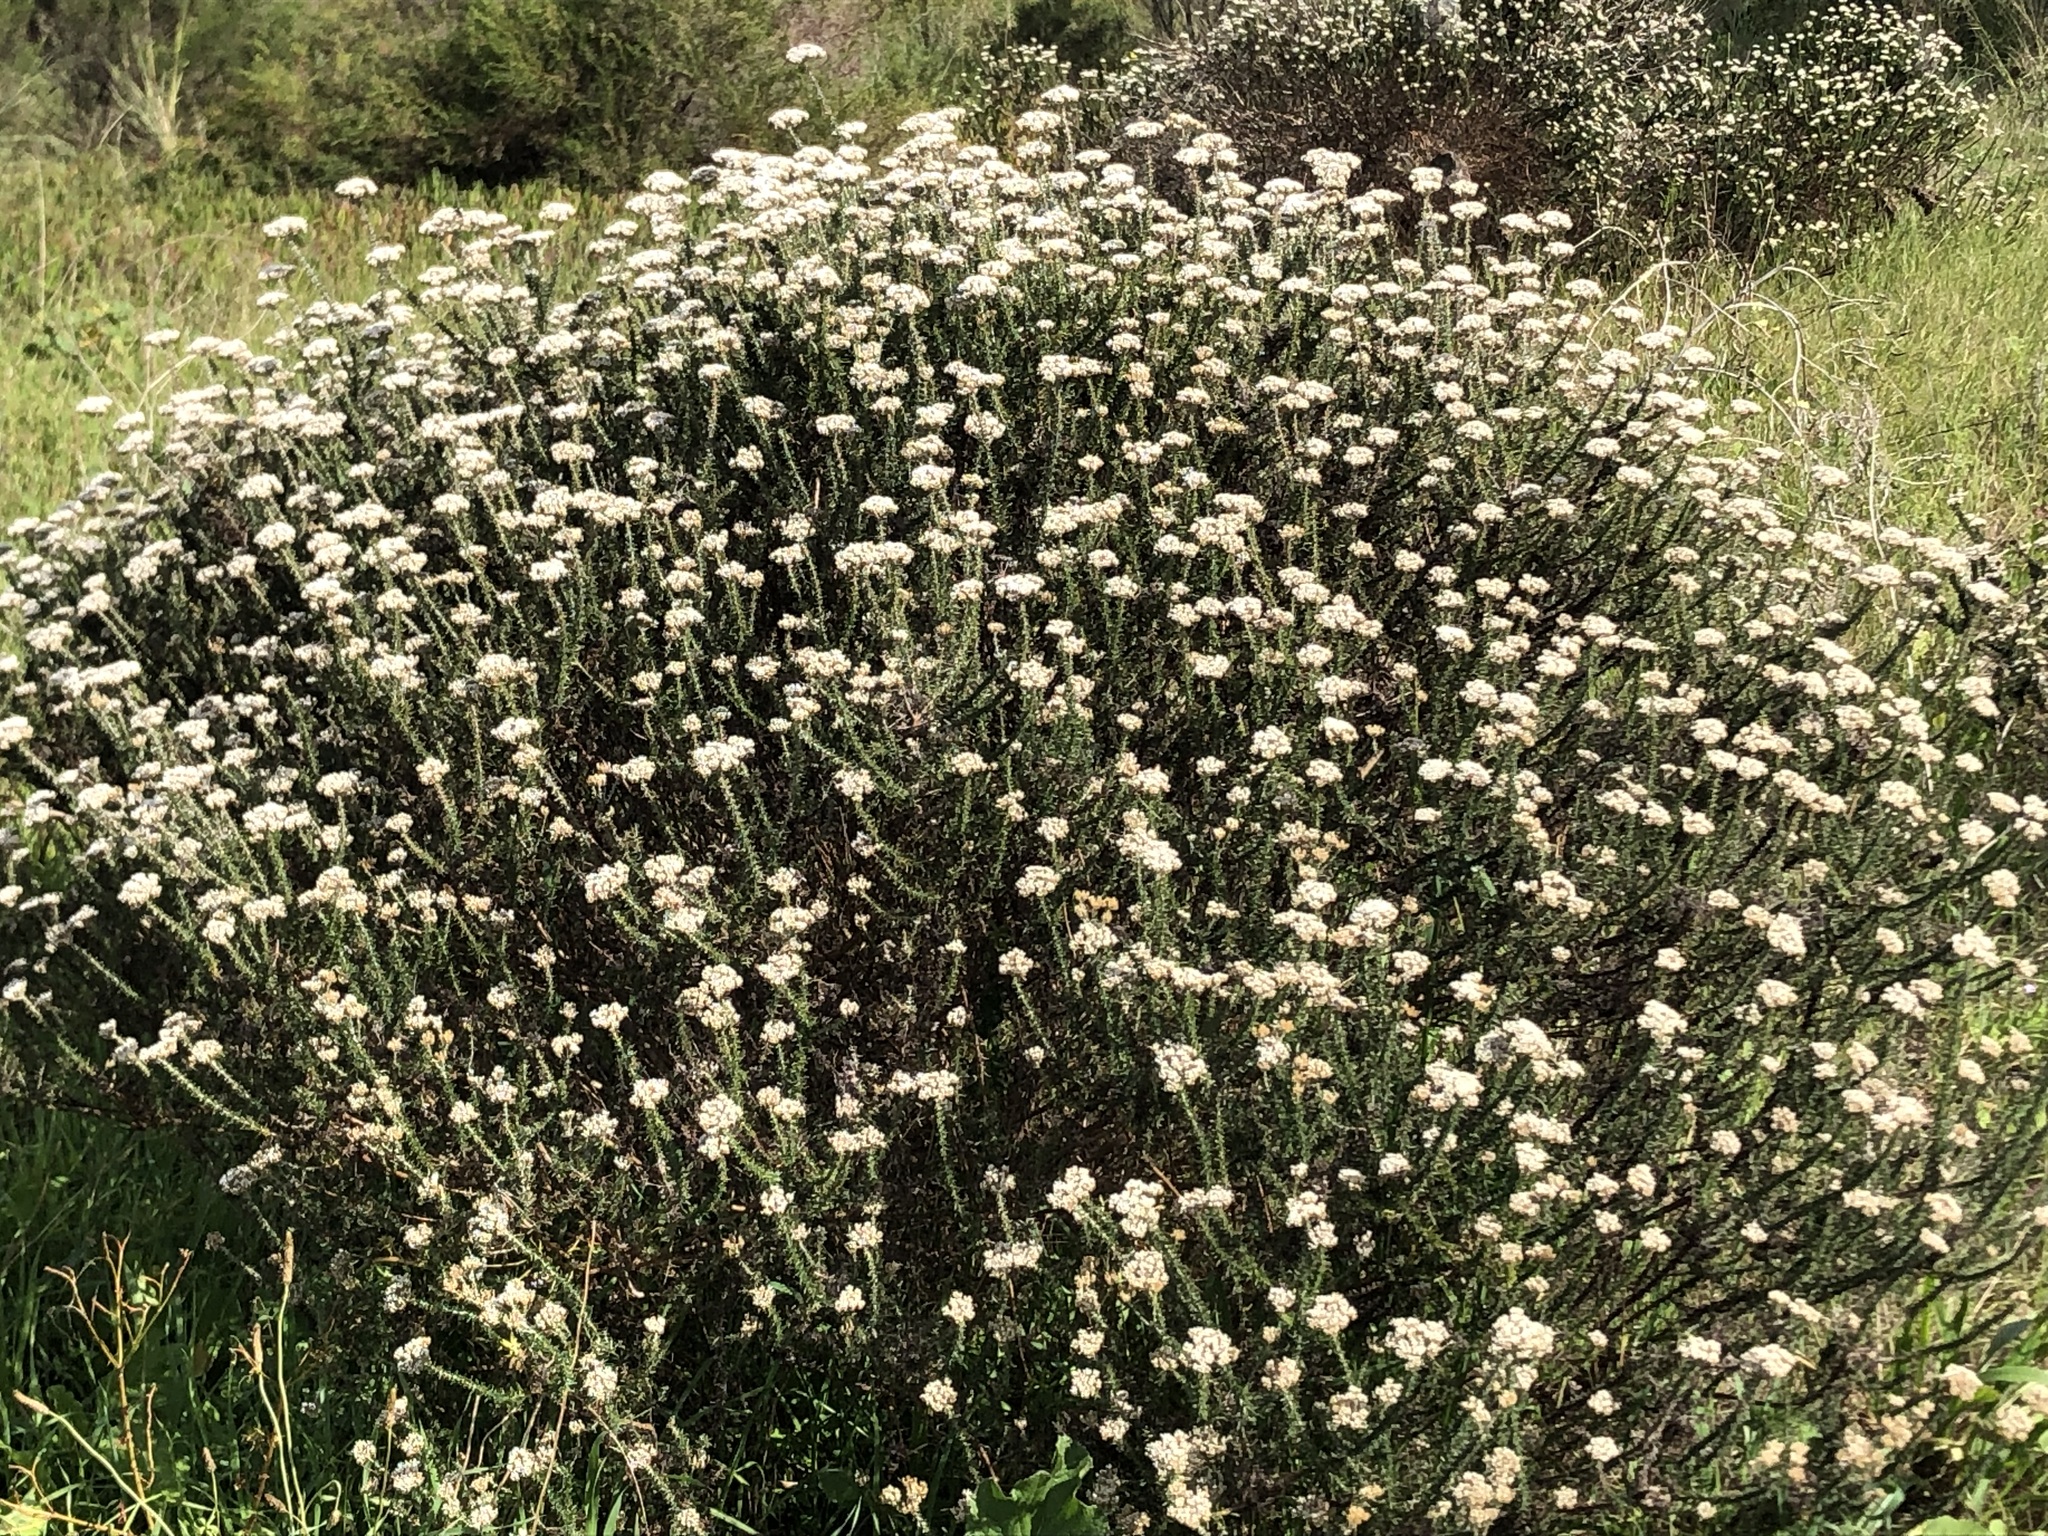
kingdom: Plantae
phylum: Tracheophyta
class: Magnoliopsida
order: Asterales
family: Asteraceae
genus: Metalasia
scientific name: Metalasia densa
